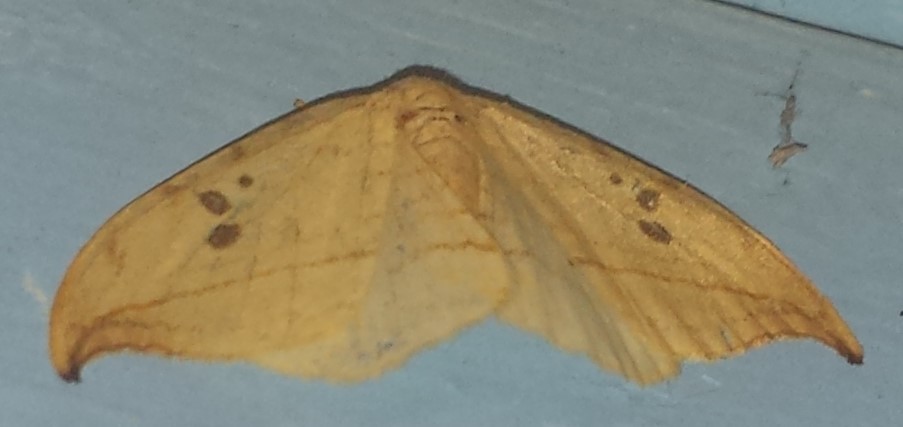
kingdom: Animalia
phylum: Arthropoda
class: Insecta
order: Lepidoptera
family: Drepanidae
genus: Drepana
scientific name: Drepana arcuata
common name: Arched hooktip moth
